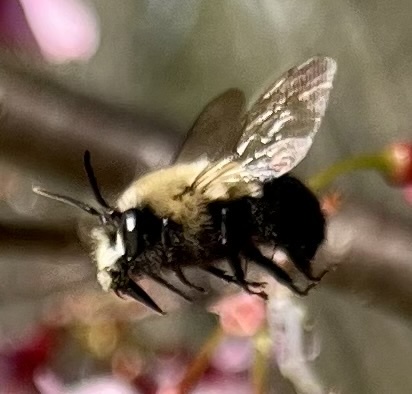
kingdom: Animalia
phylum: Arthropoda
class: Insecta
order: Hymenoptera
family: Apidae
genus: Habropoda
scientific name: Habropoda laboriosa
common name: Southeastern blueberry bee
